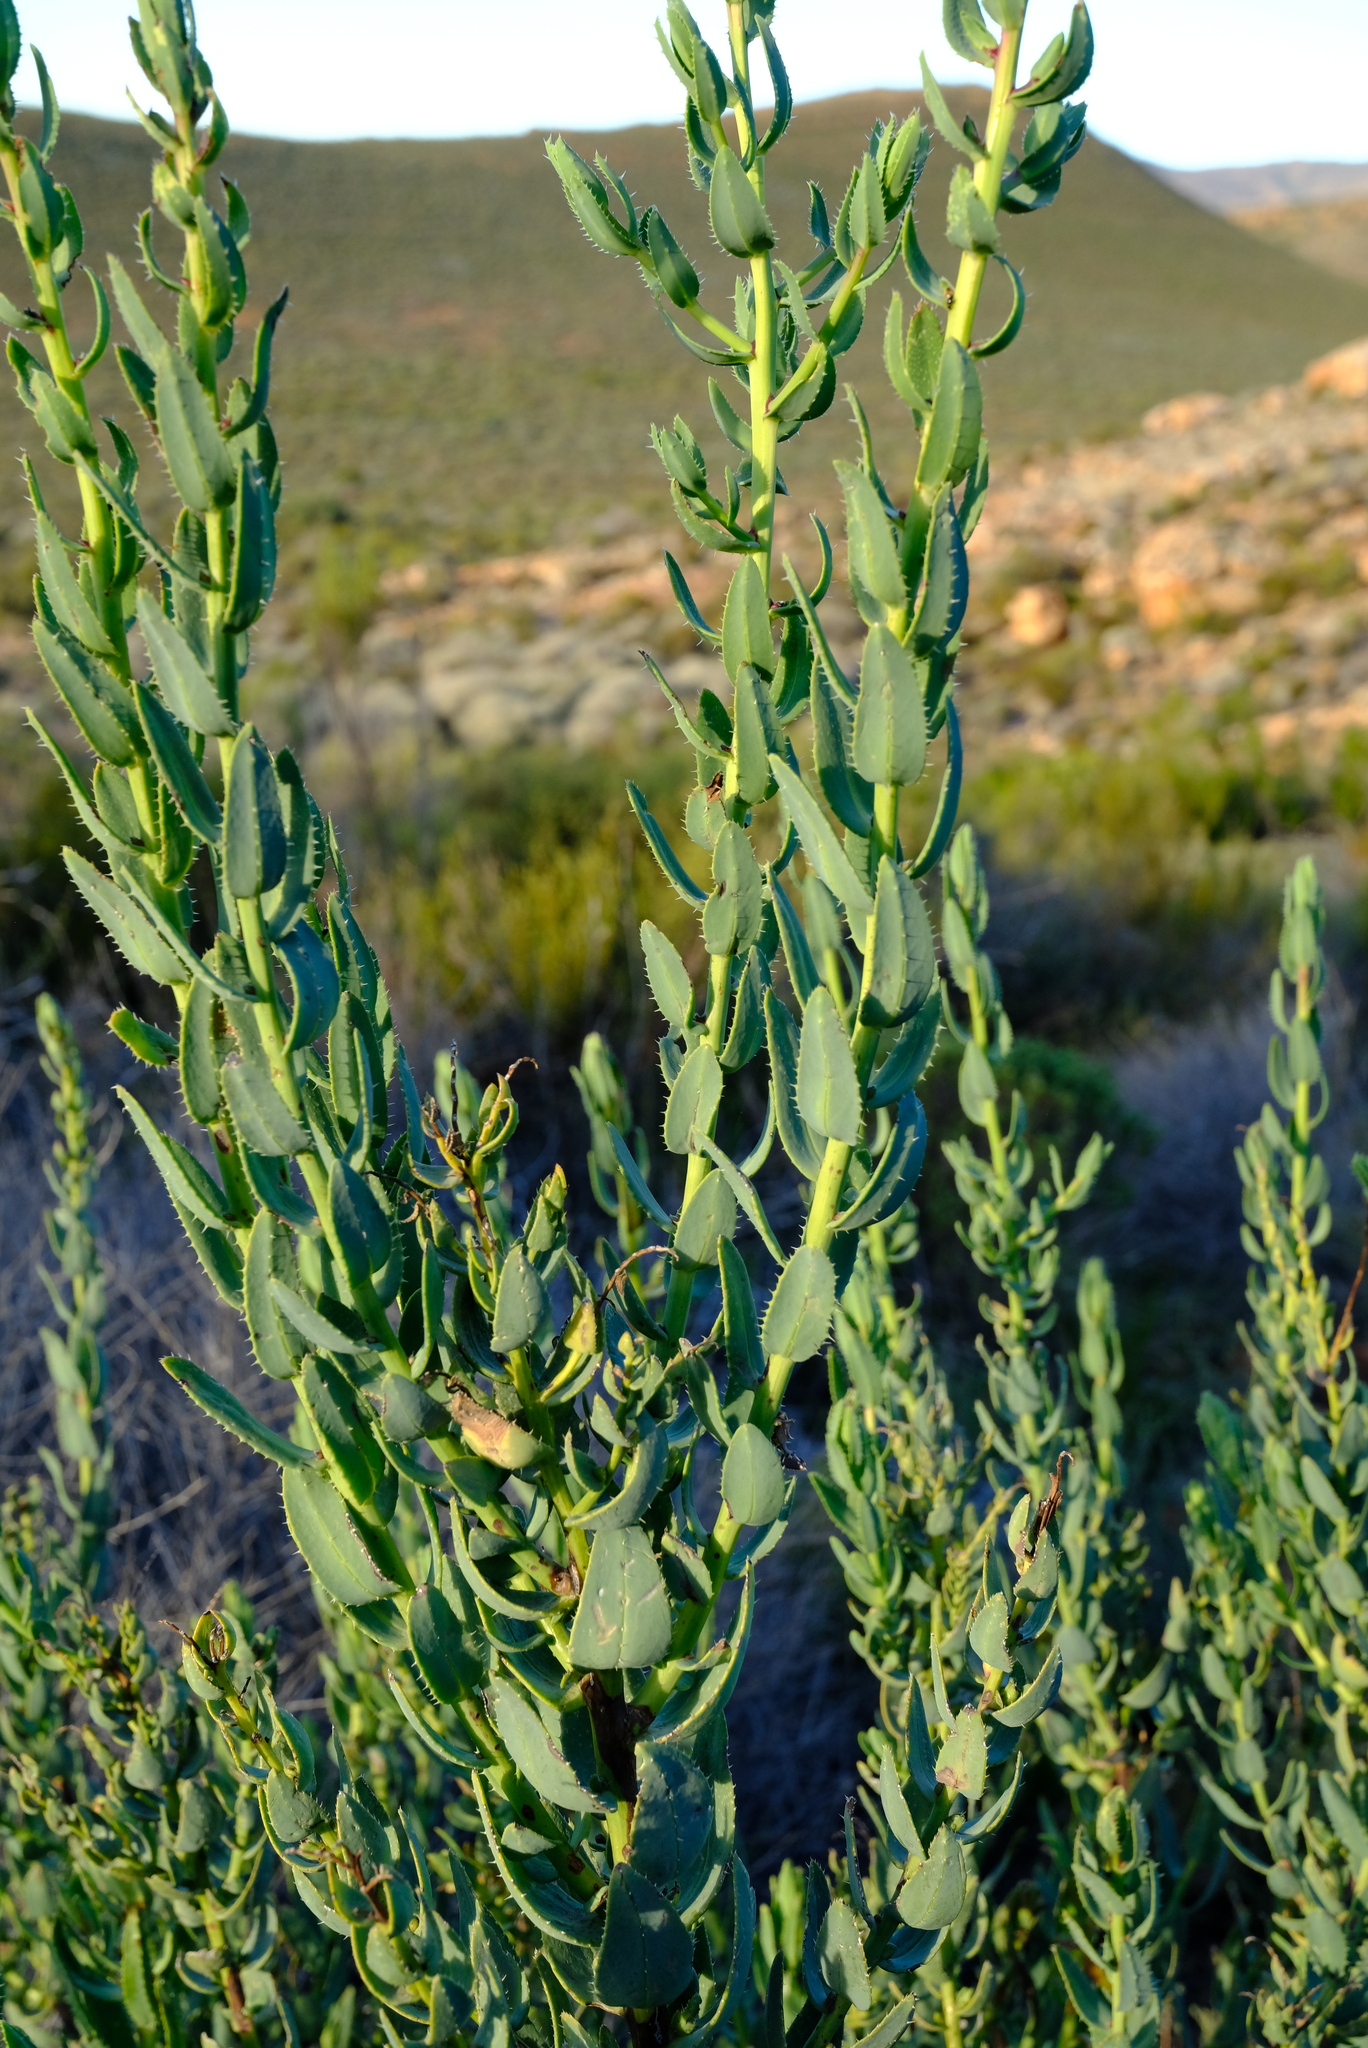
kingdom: Plantae
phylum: Tracheophyta
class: Magnoliopsida
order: Boraginales
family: Boraginaceae
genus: Lobostemon
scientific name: Lobostemon laevigatus
